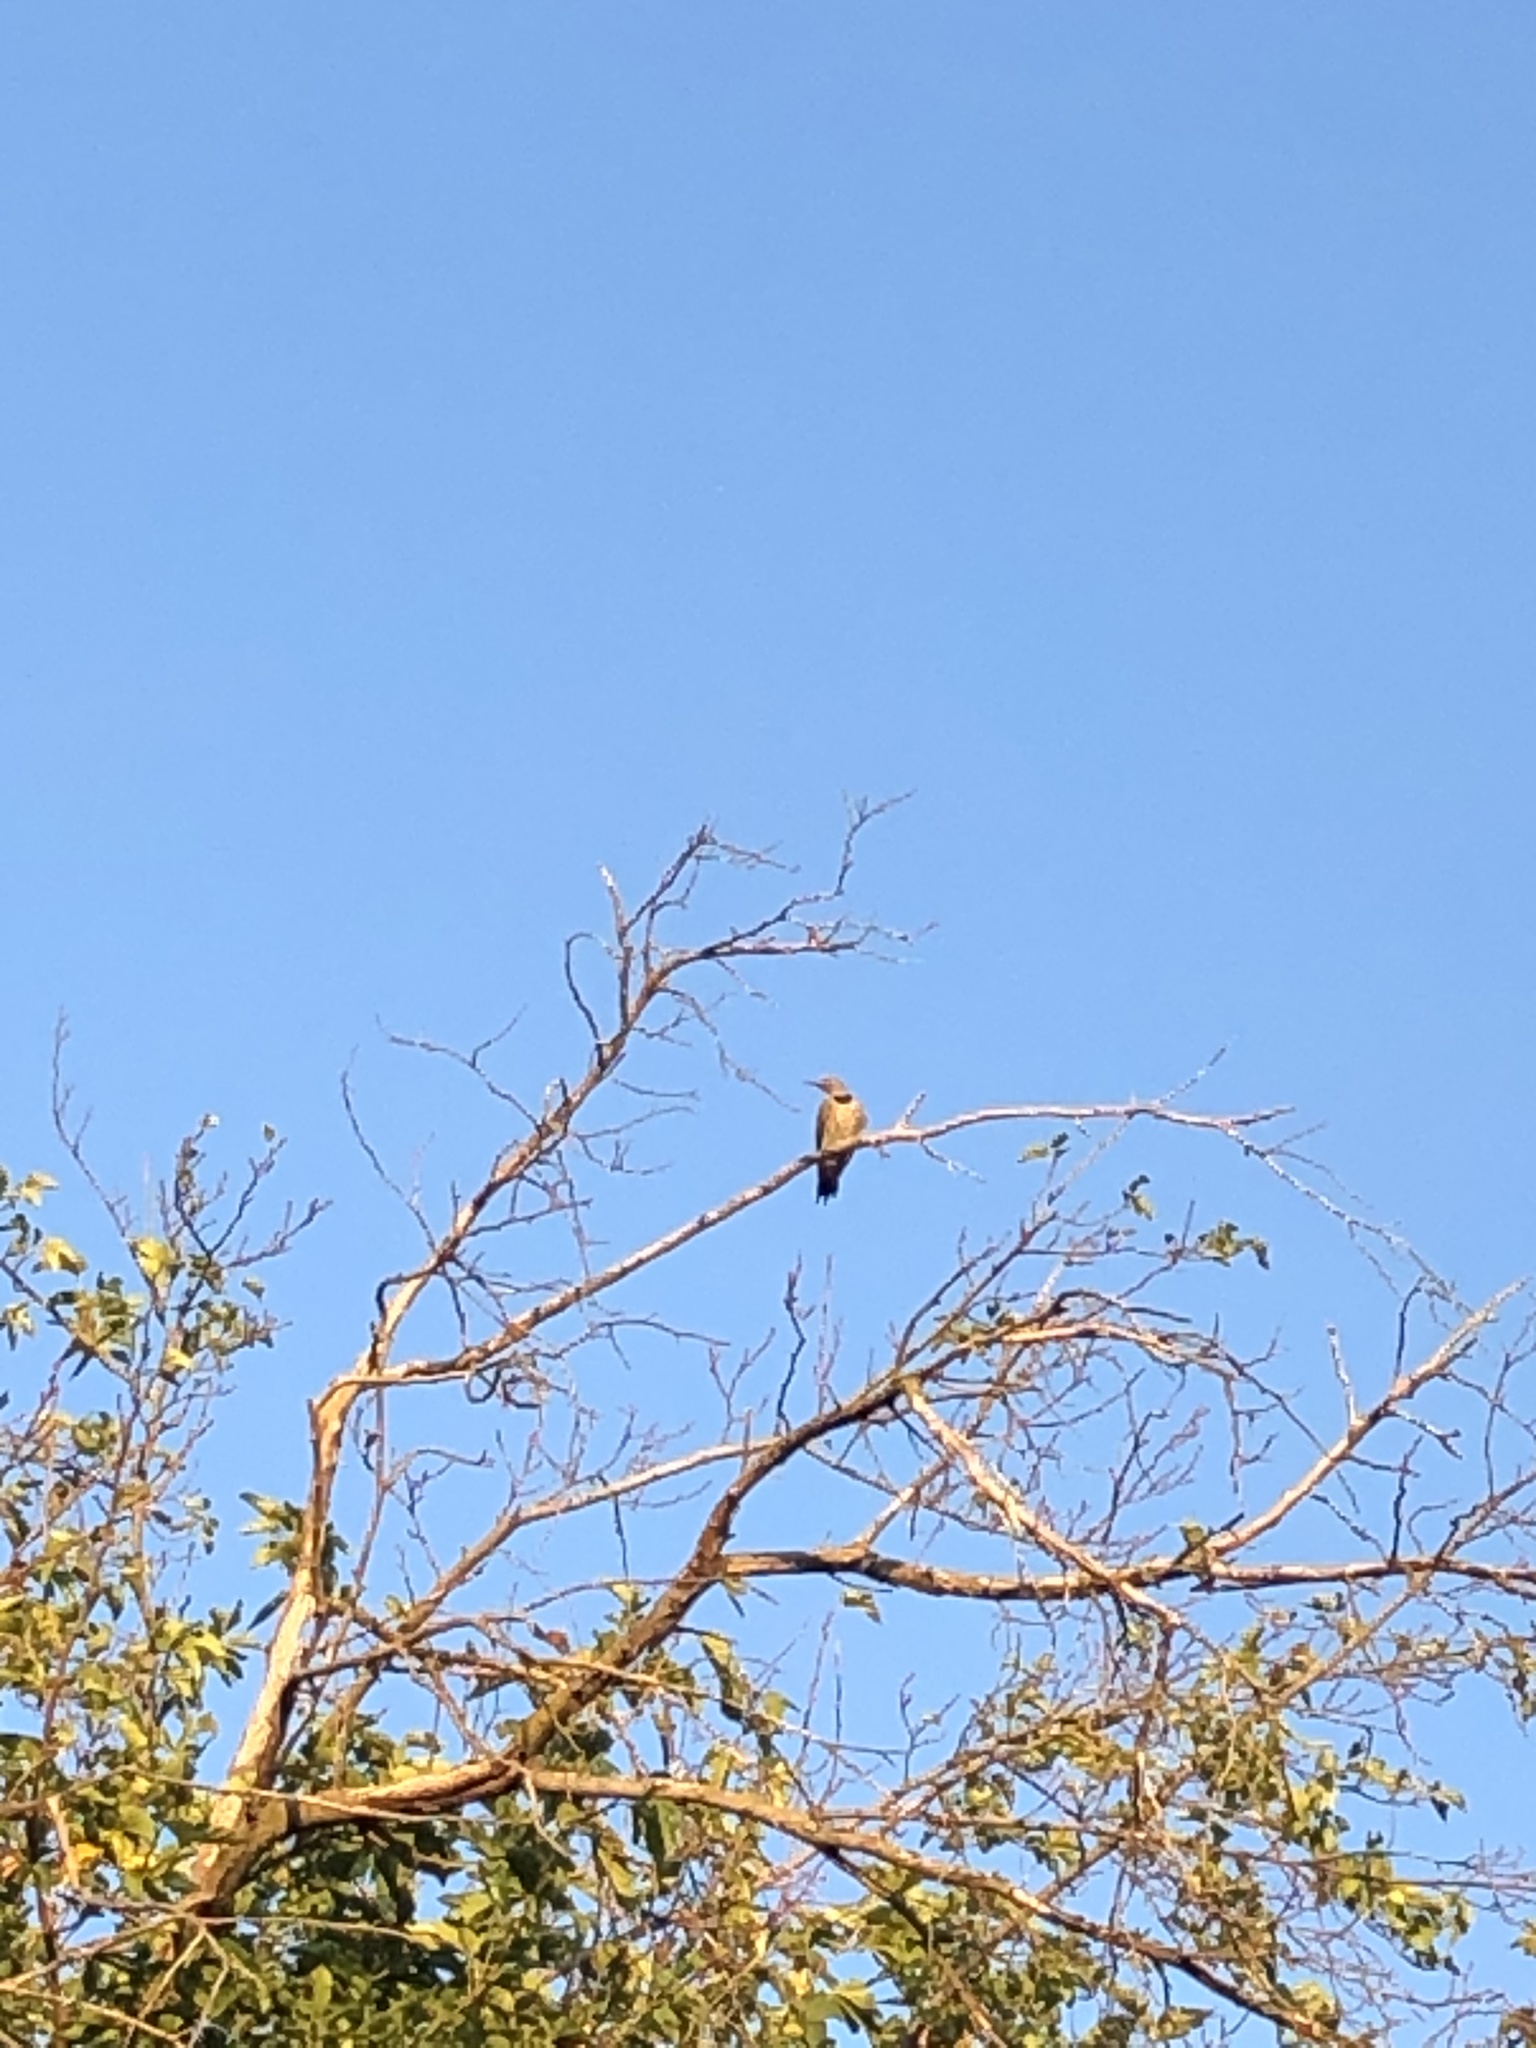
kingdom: Animalia
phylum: Chordata
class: Aves
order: Piciformes
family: Picidae
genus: Colaptes
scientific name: Colaptes auratus
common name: Northern flicker
